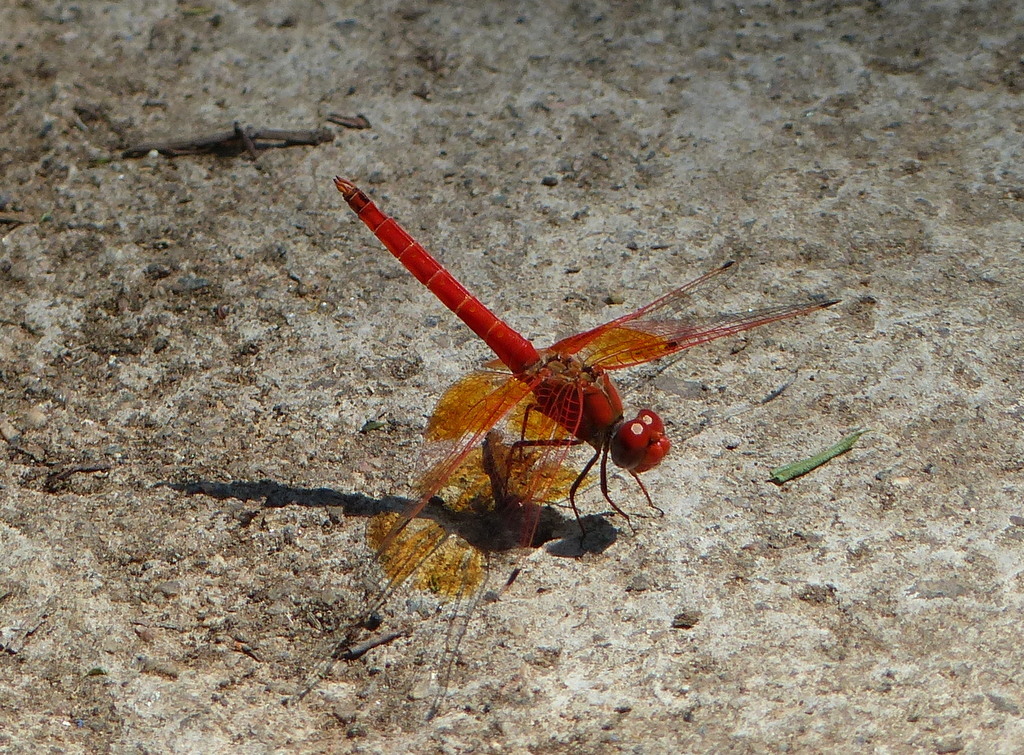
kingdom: Animalia
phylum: Arthropoda
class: Insecta
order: Odonata
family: Libellulidae
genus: Trithemis
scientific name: Trithemis kirbyi
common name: Kirby's dropwing
